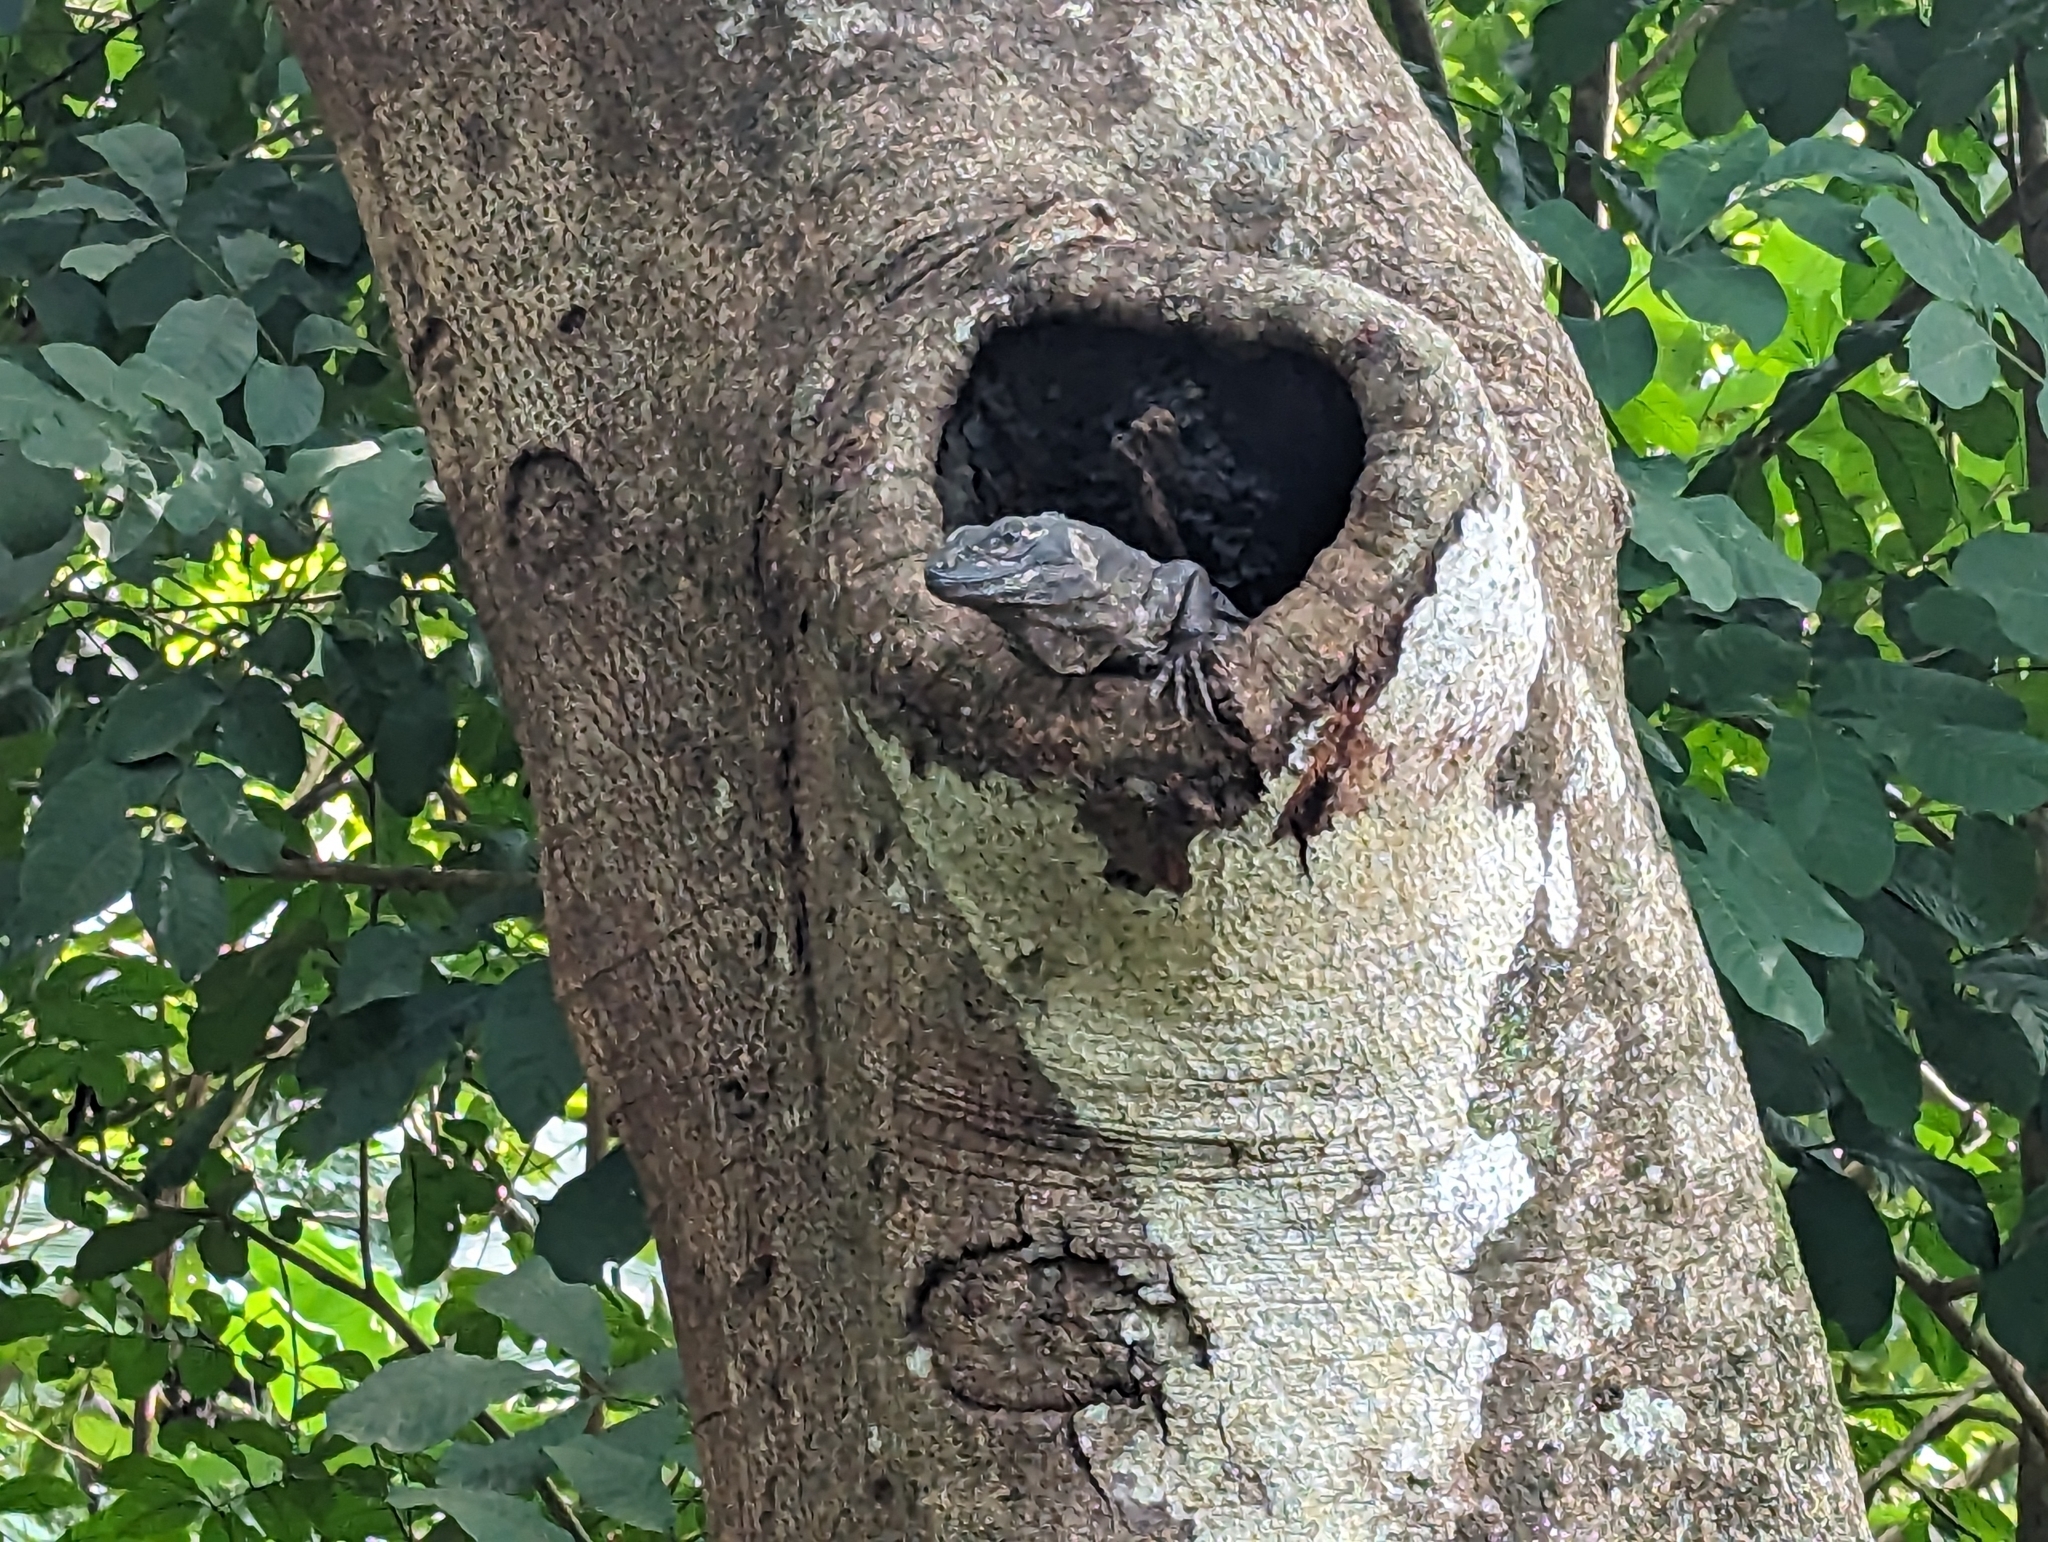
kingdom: Animalia
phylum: Chordata
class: Squamata
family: Iguanidae
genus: Ctenosaura
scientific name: Ctenosaura similis
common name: Black spiny-tailed iguana
